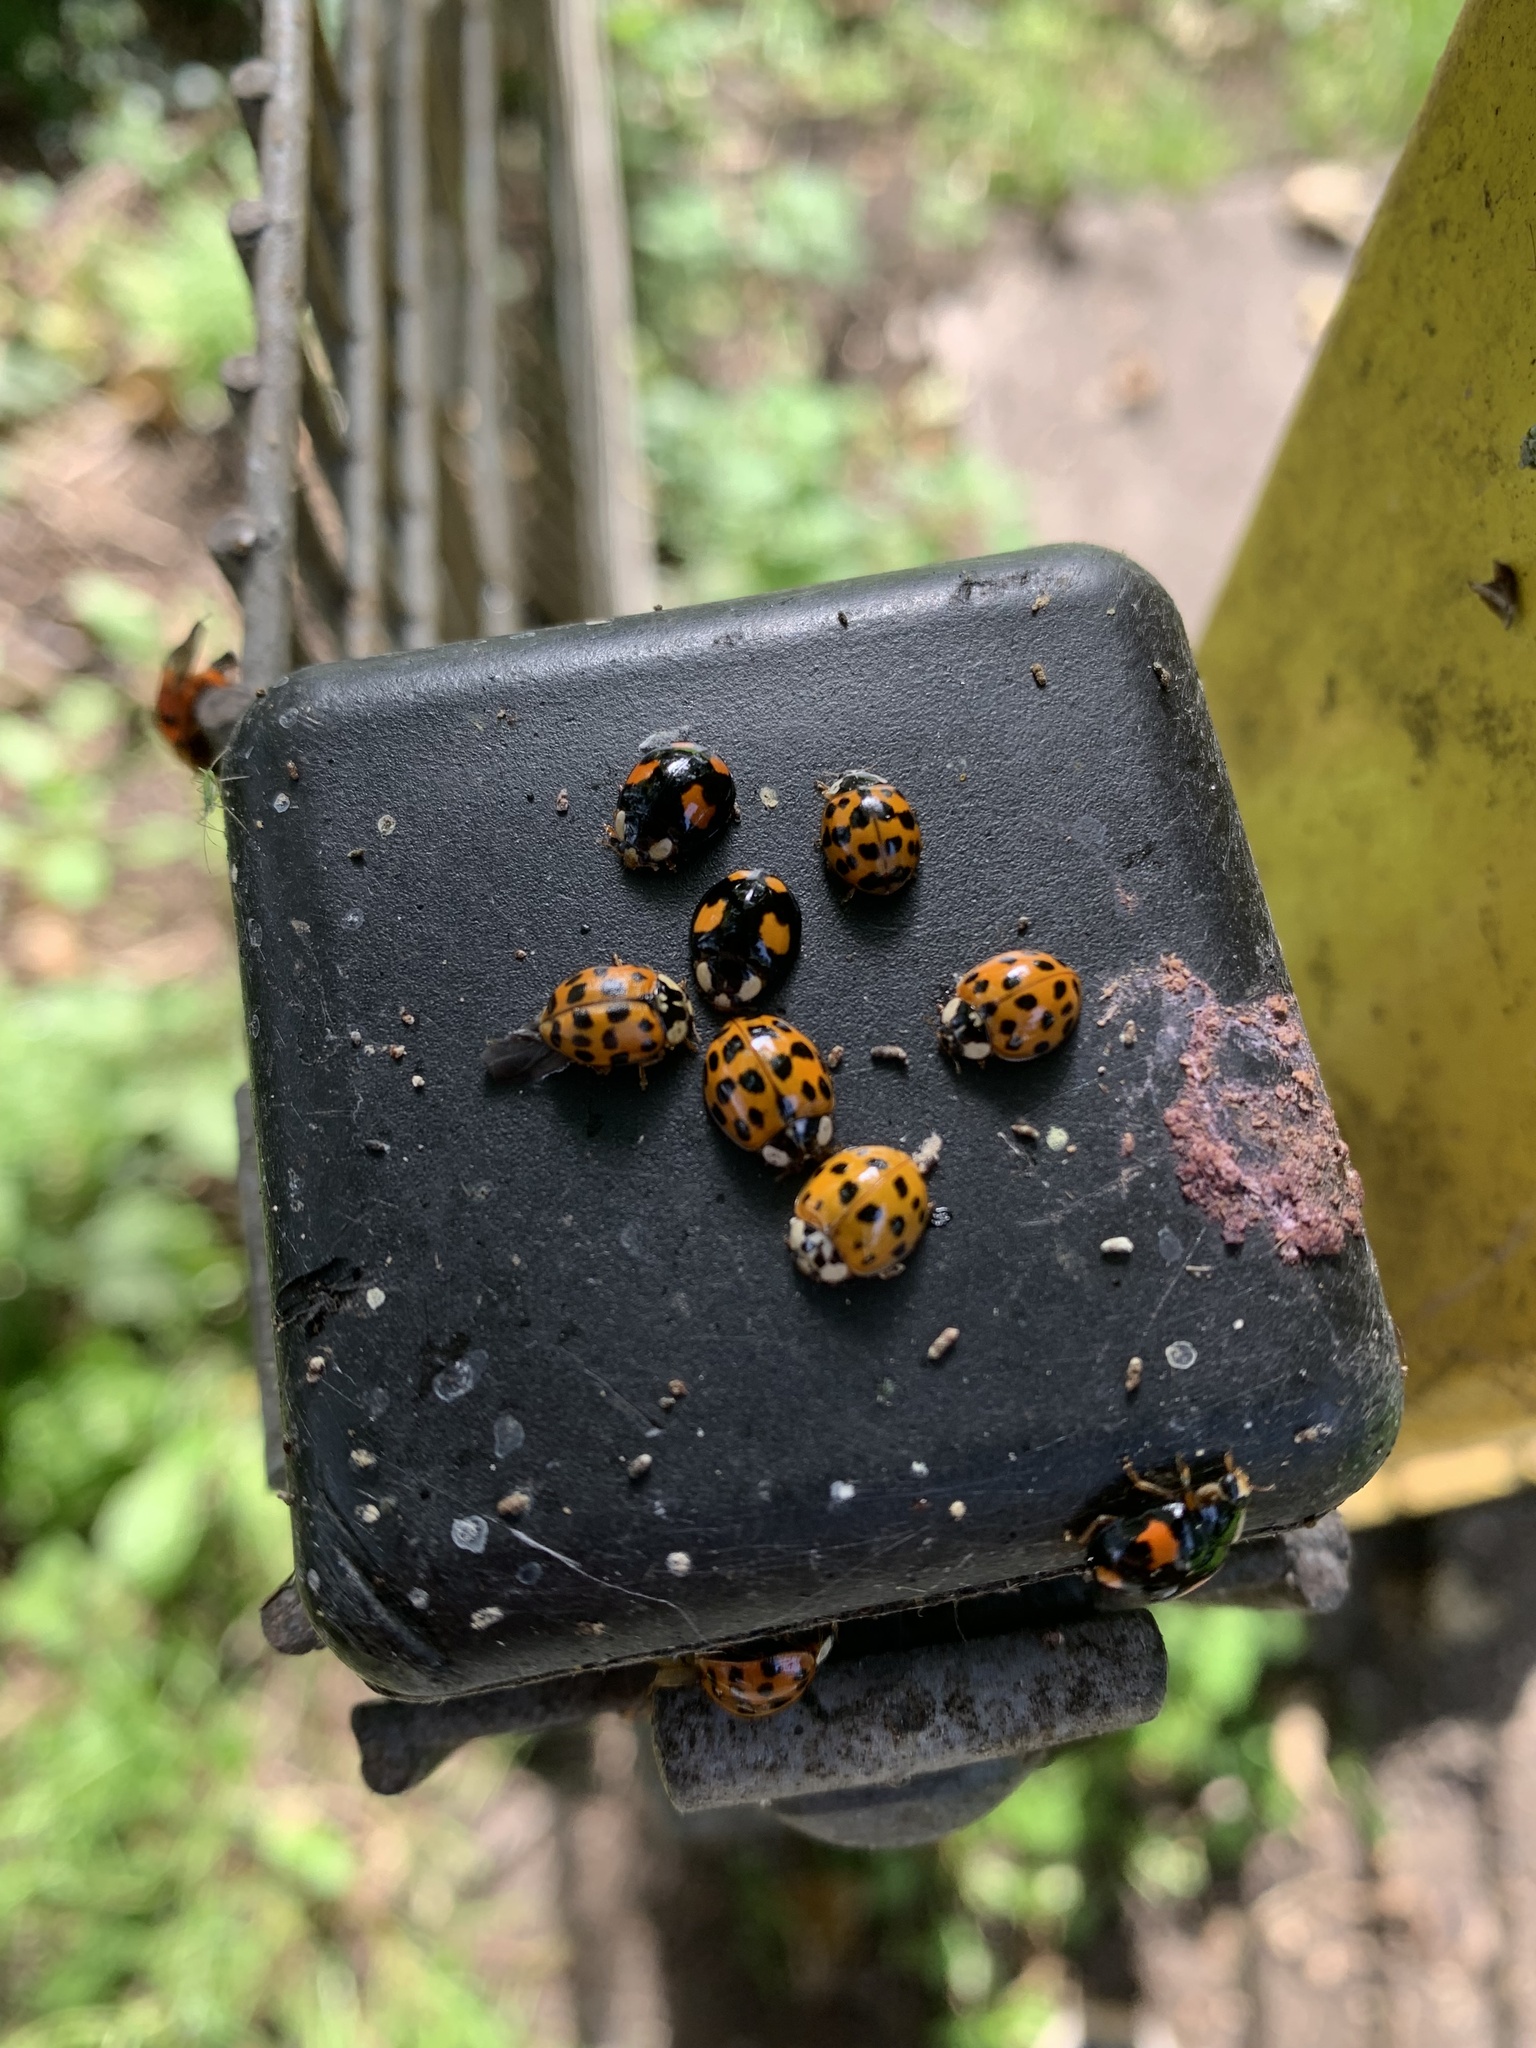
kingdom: Animalia
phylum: Arthropoda
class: Insecta
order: Coleoptera
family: Coccinellidae
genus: Harmonia
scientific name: Harmonia axyridis
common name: Harlequin ladybird
